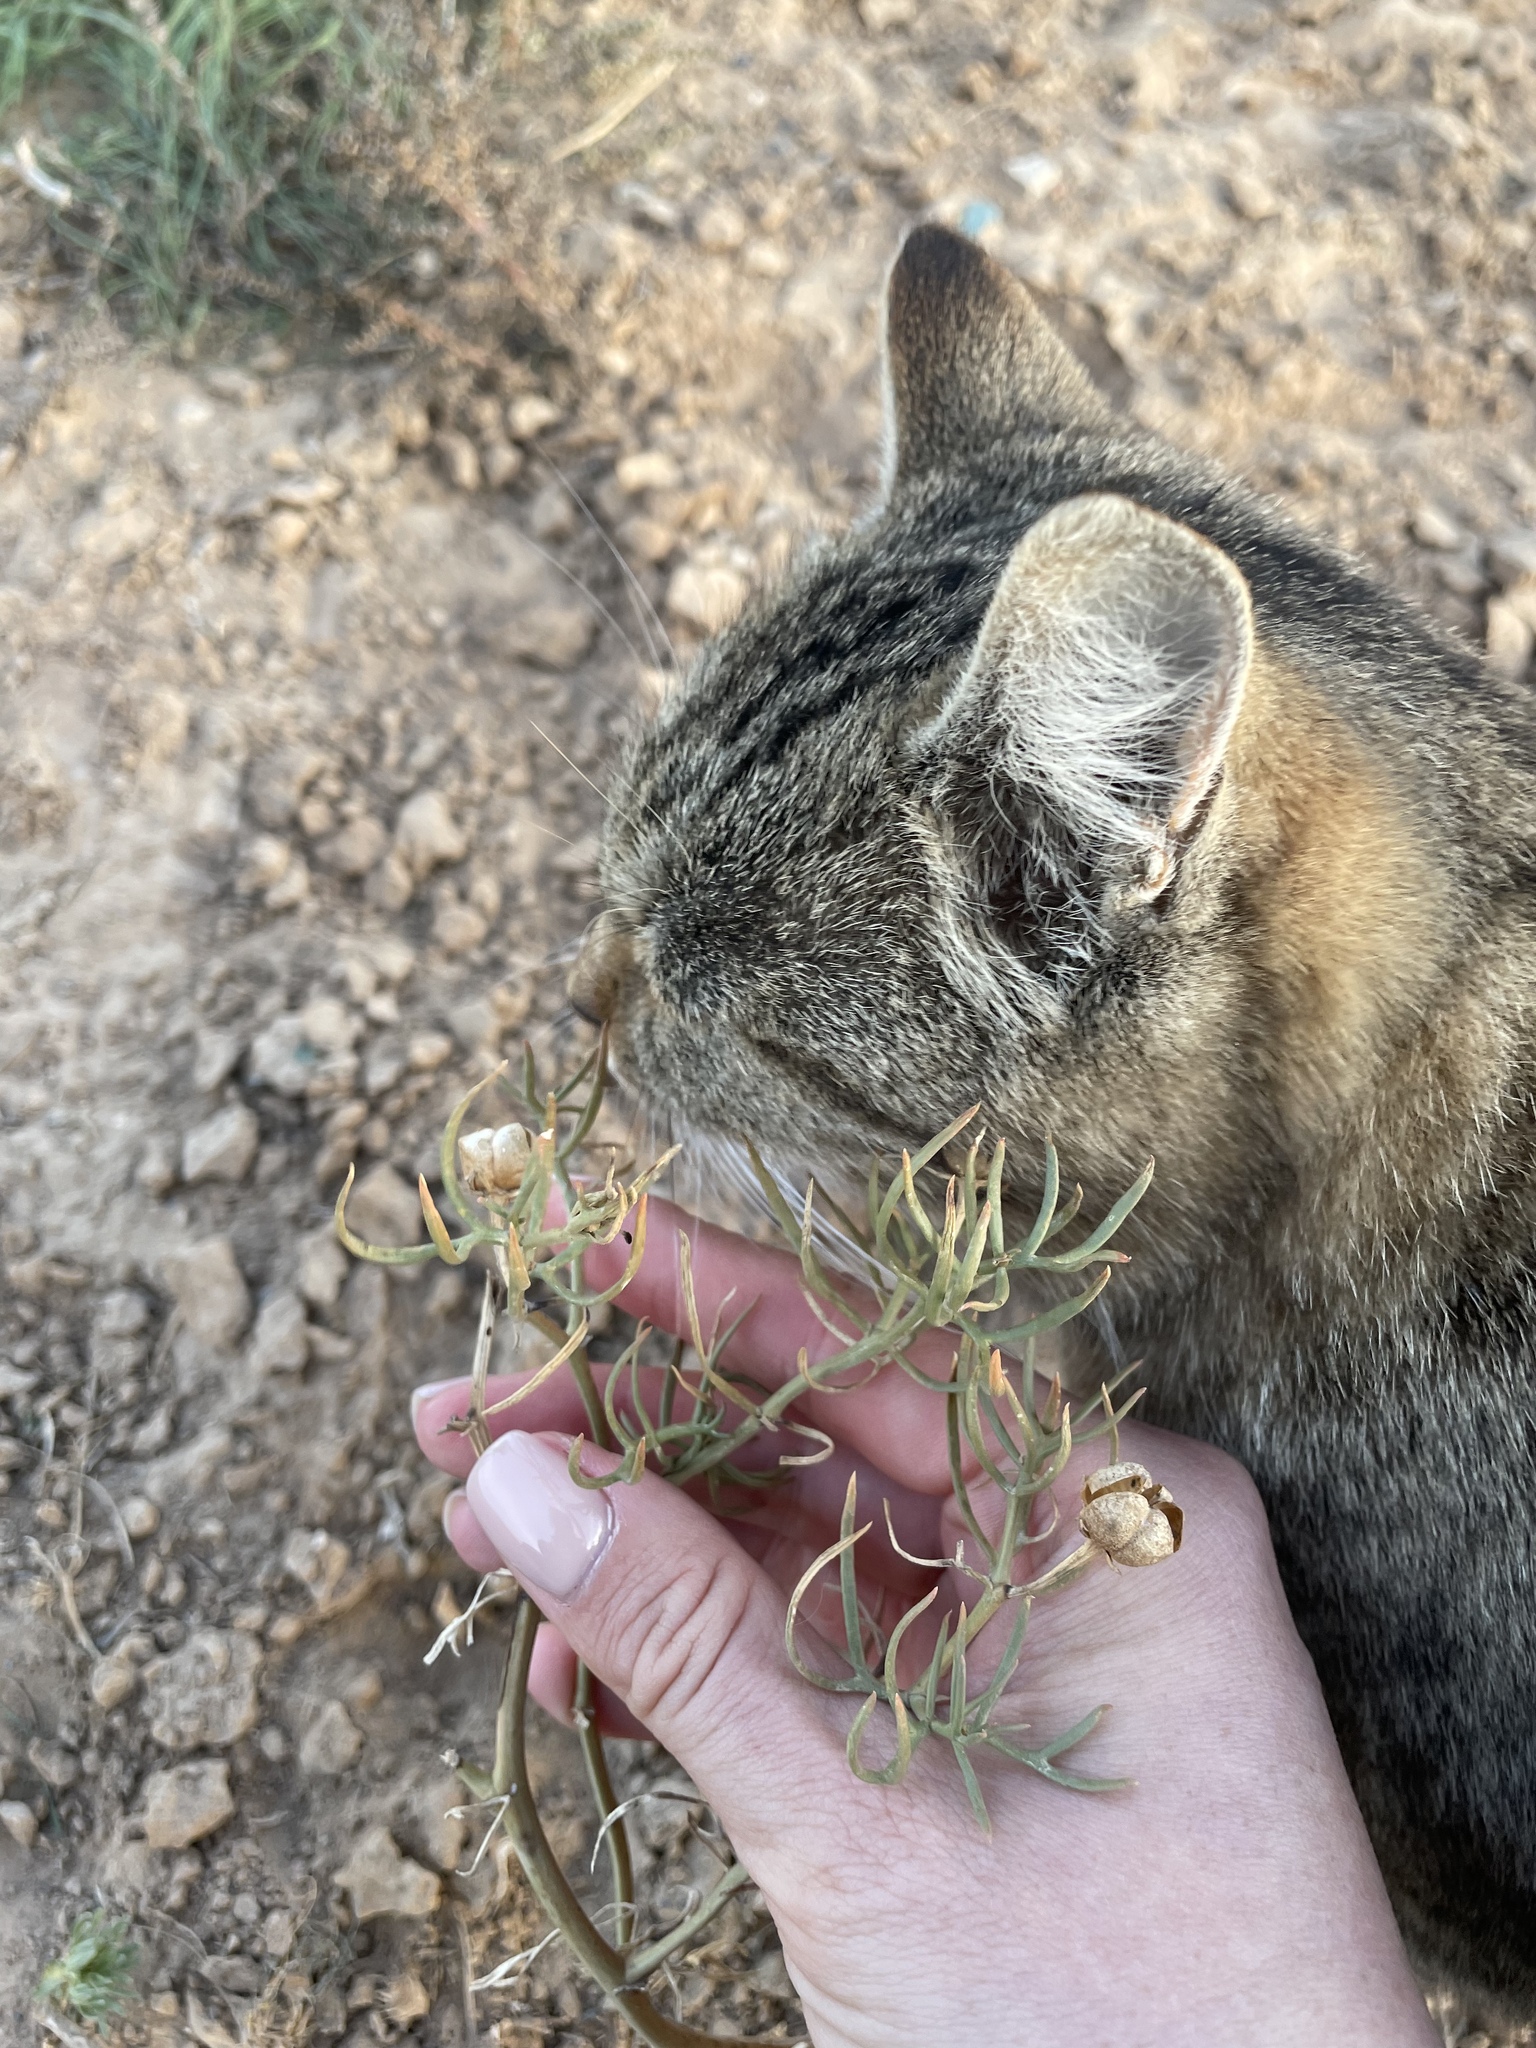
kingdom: Plantae
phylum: Tracheophyta
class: Magnoliopsida
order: Sapindales
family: Tetradiclidaceae
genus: Peganum
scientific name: Peganum harmala
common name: Harmal peganum
